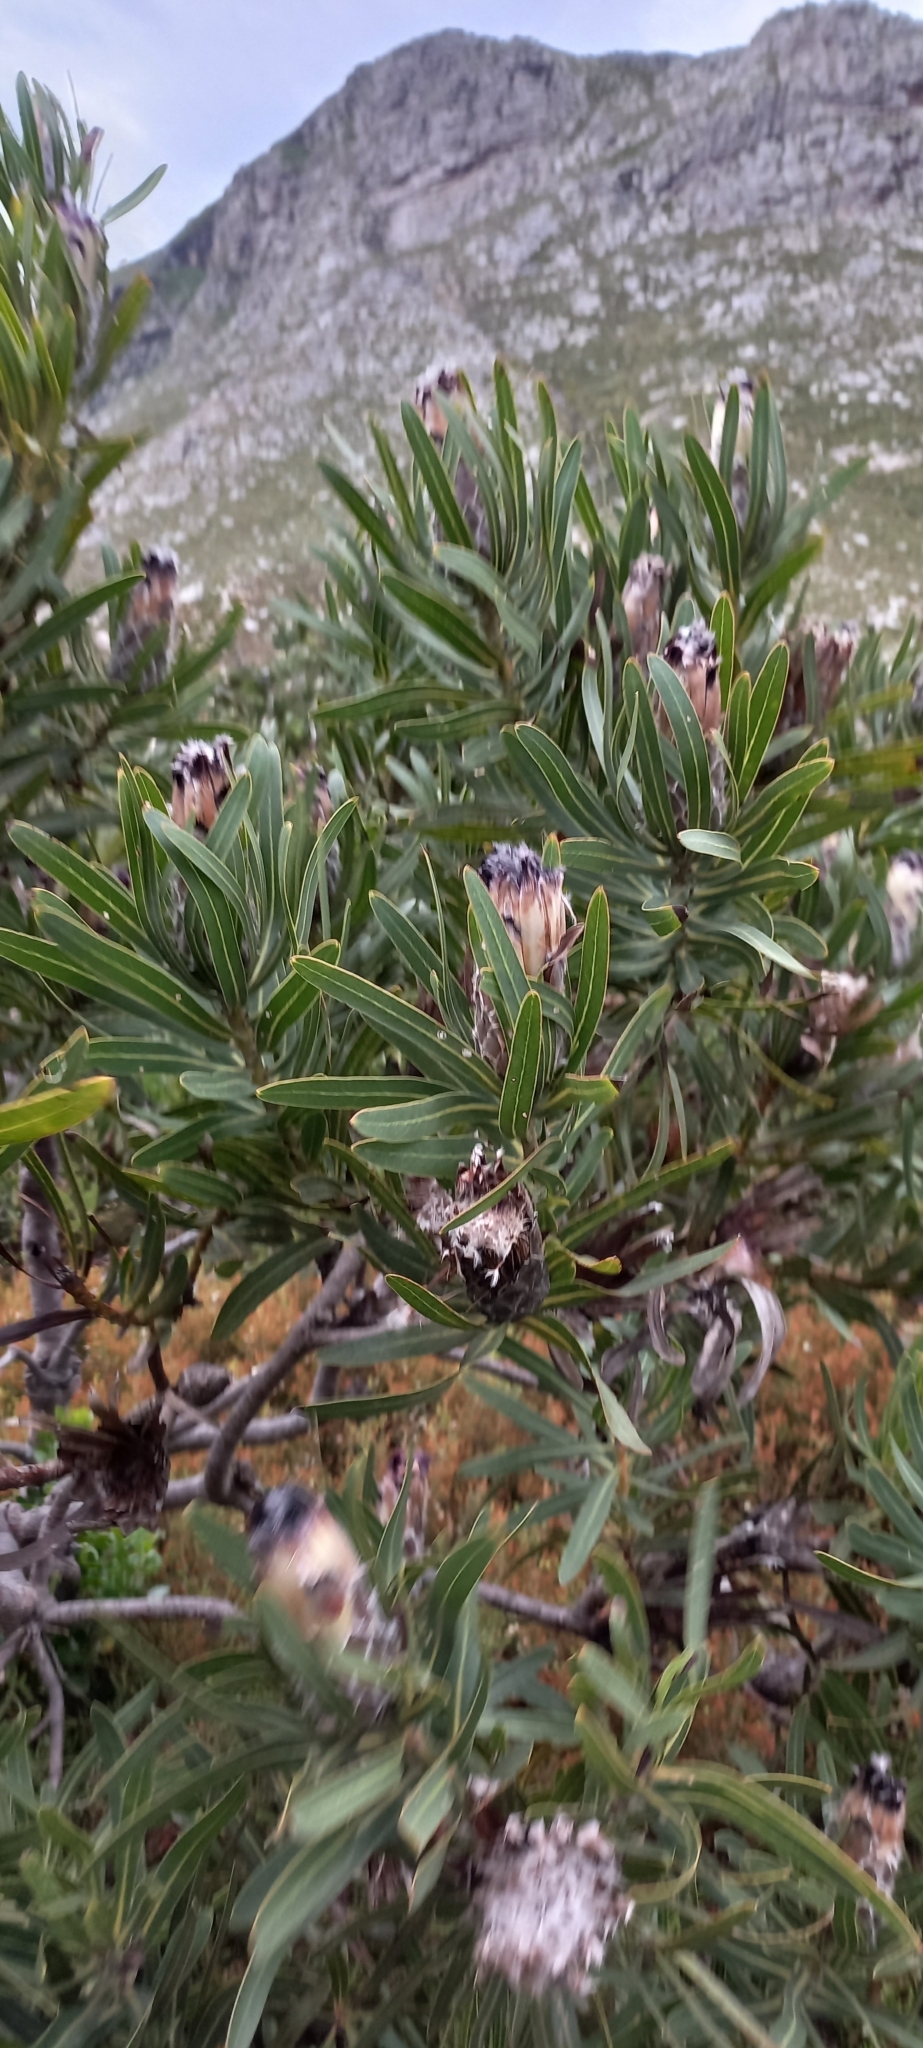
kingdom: Plantae
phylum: Tracheophyta
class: Magnoliopsida
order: Proteales
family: Proteaceae
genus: Protea
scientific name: Protea lepidocarpodendron
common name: Black-bearded protea
